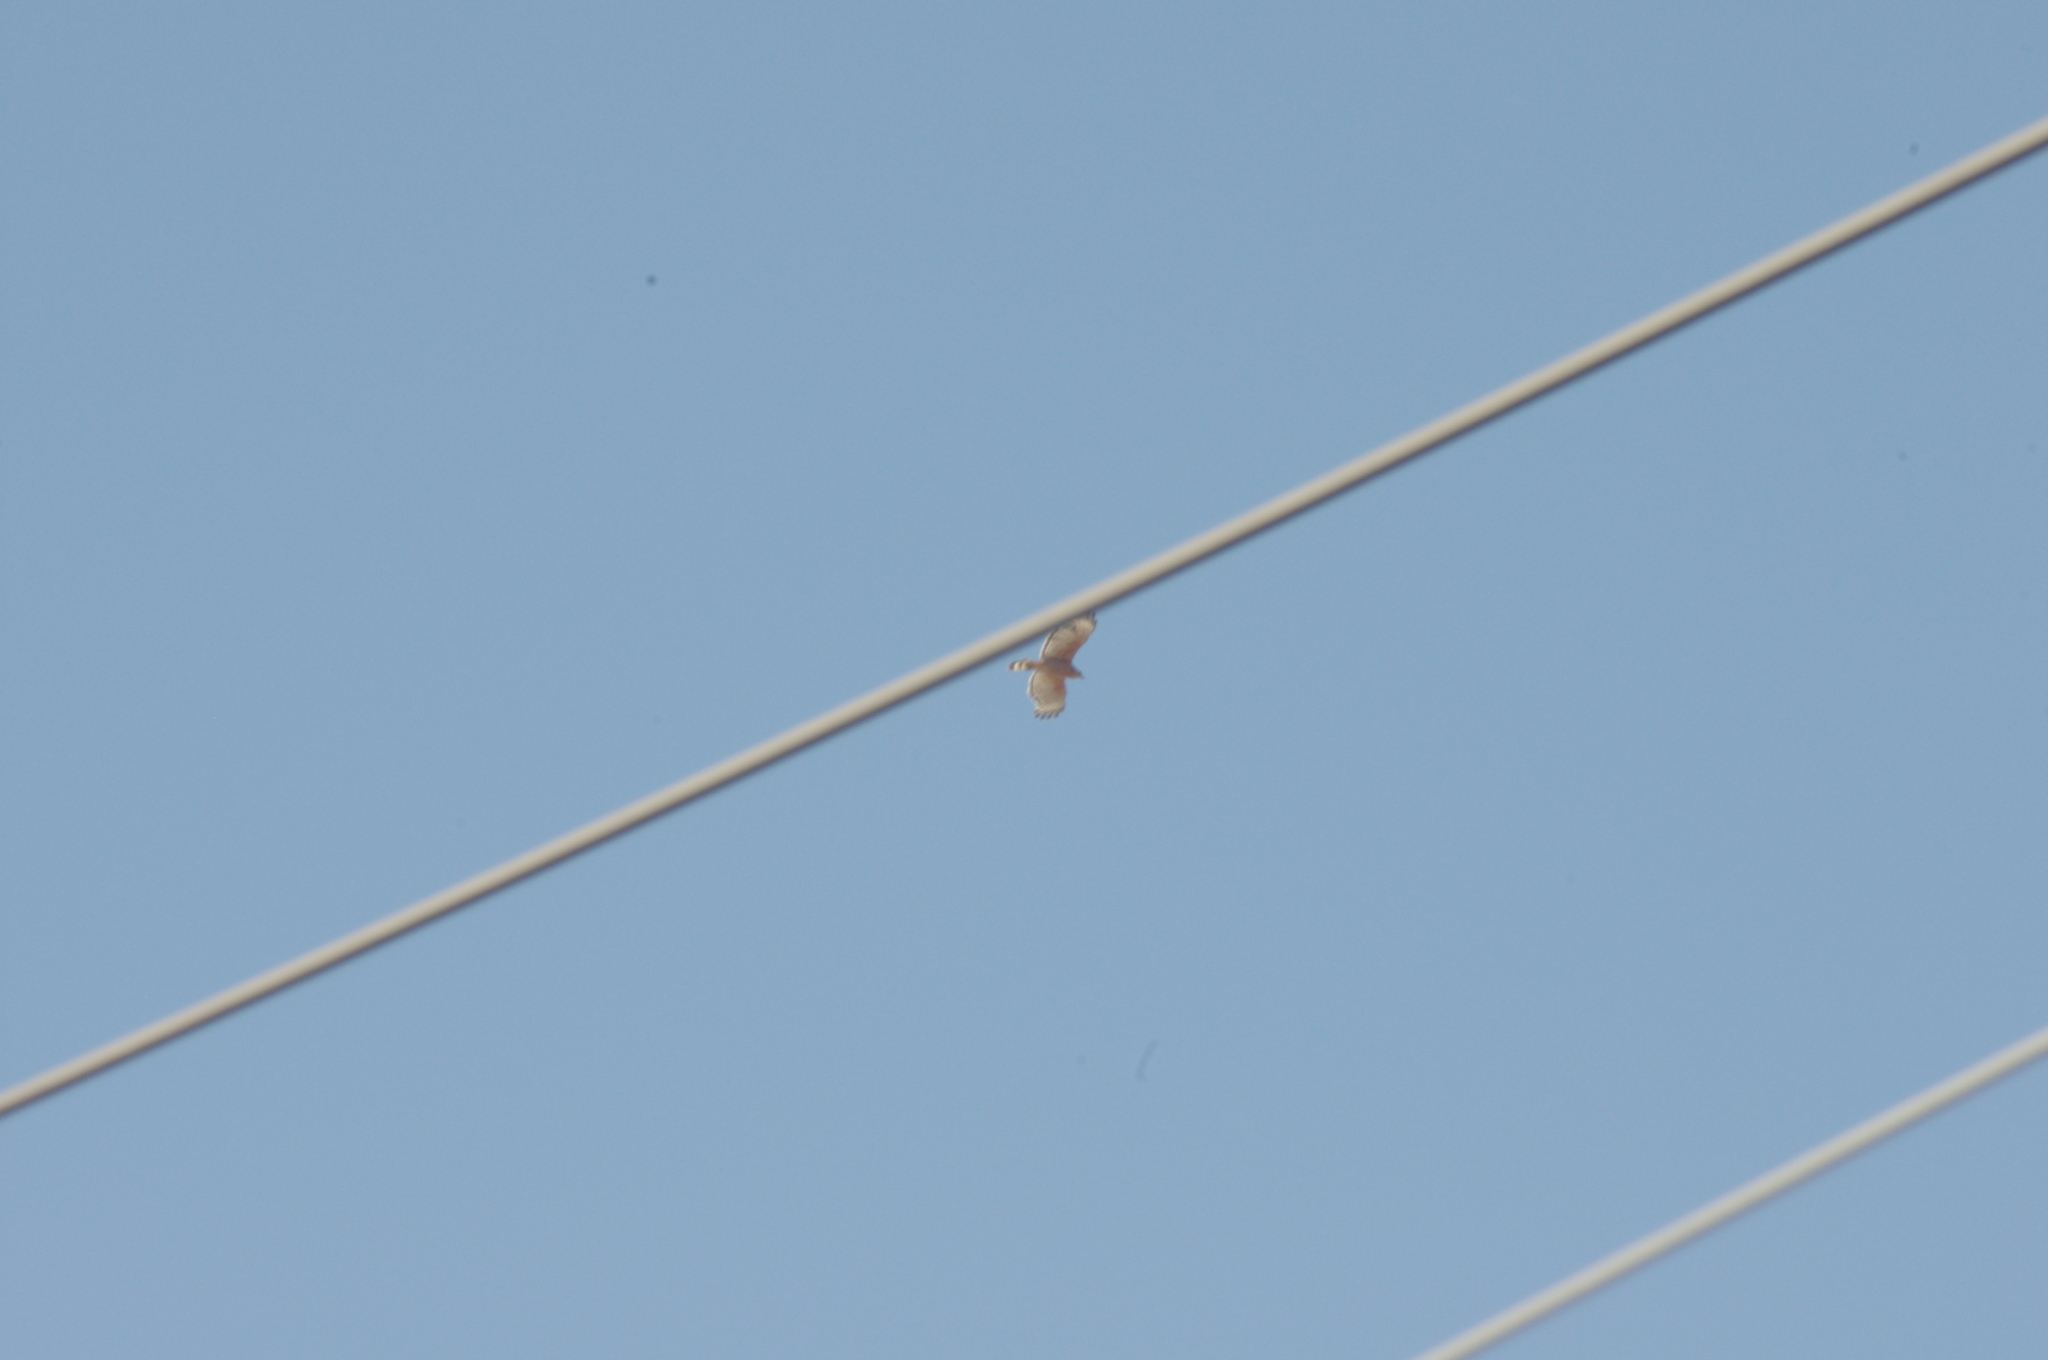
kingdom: Animalia
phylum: Chordata
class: Aves
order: Accipitriformes
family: Accipitridae
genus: Buteo
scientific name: Buteo lineatus
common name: Red-shouldered hawk
